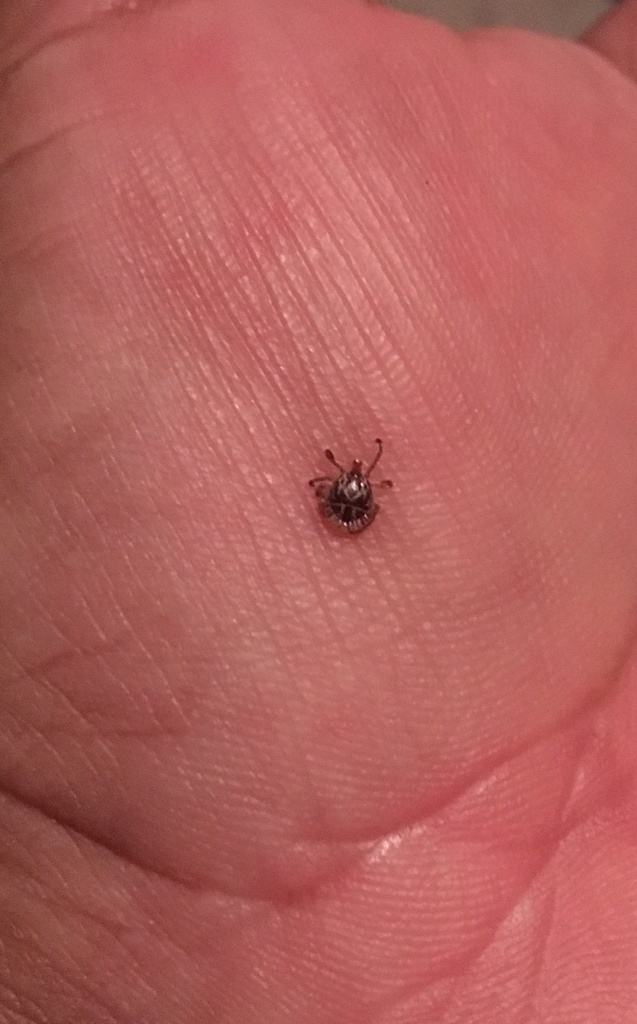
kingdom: Animalia
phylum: Arthropoda
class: Arachnida
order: Ixodida
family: Ixodidae
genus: Amblyomma
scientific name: Amblyomma imitator
